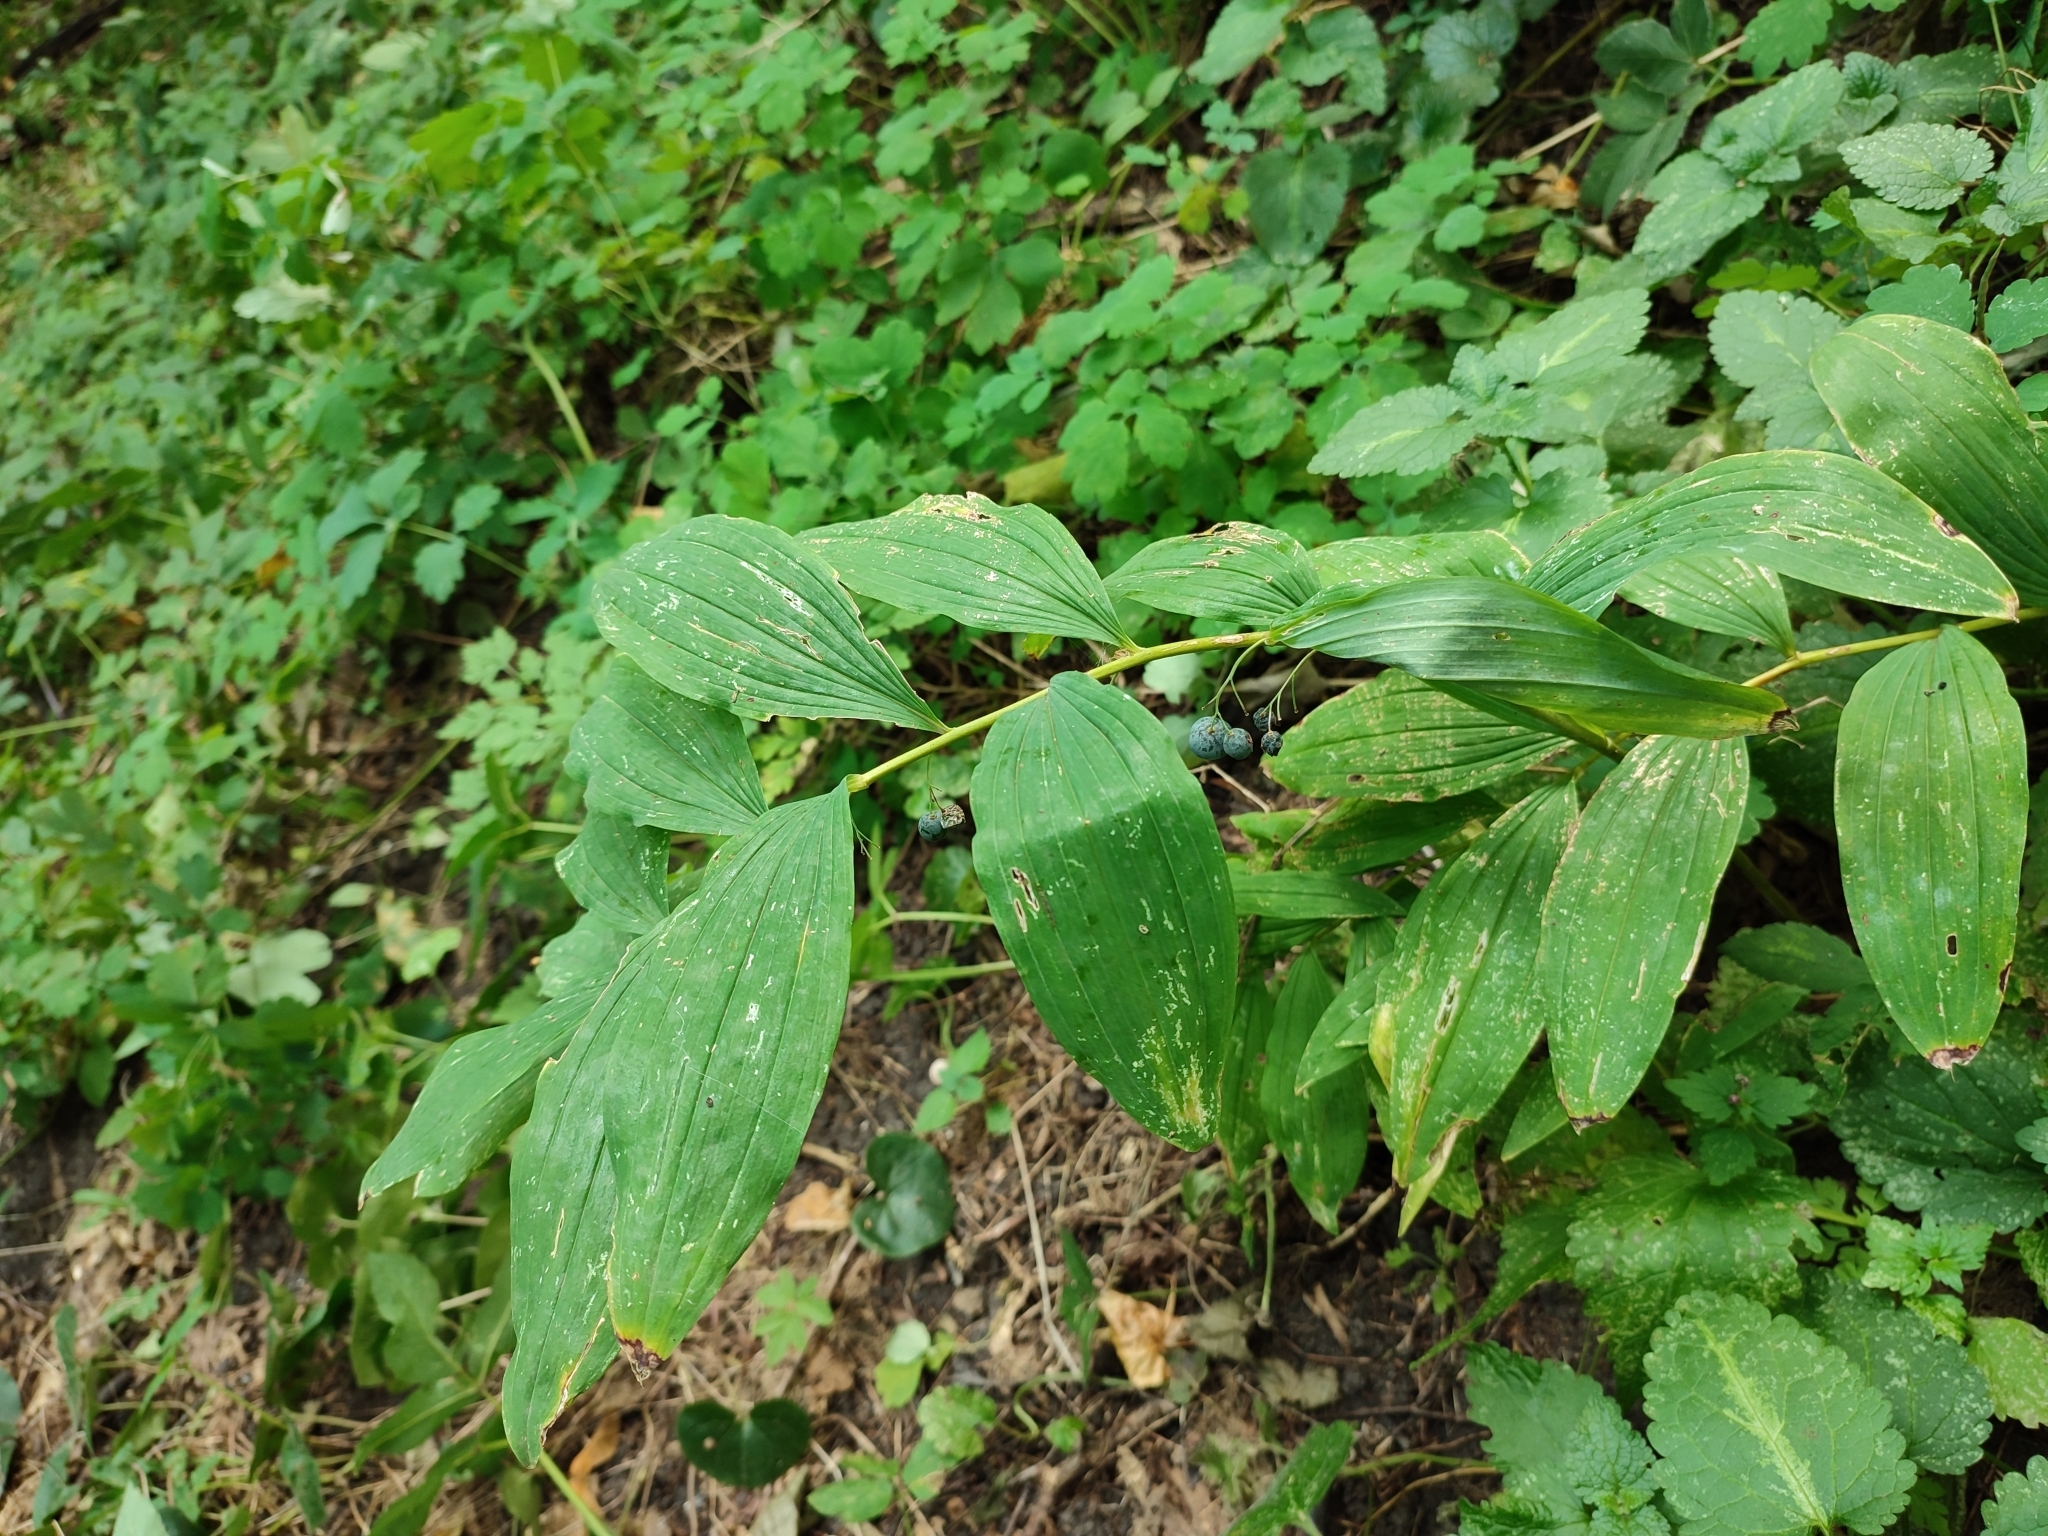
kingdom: Plantae
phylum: Tracheophyta
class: Liliopsida
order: Asparagales
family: Asparagaceae
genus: Polygonatum
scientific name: Polygonatum multiflorum
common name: Solomon's-seal
